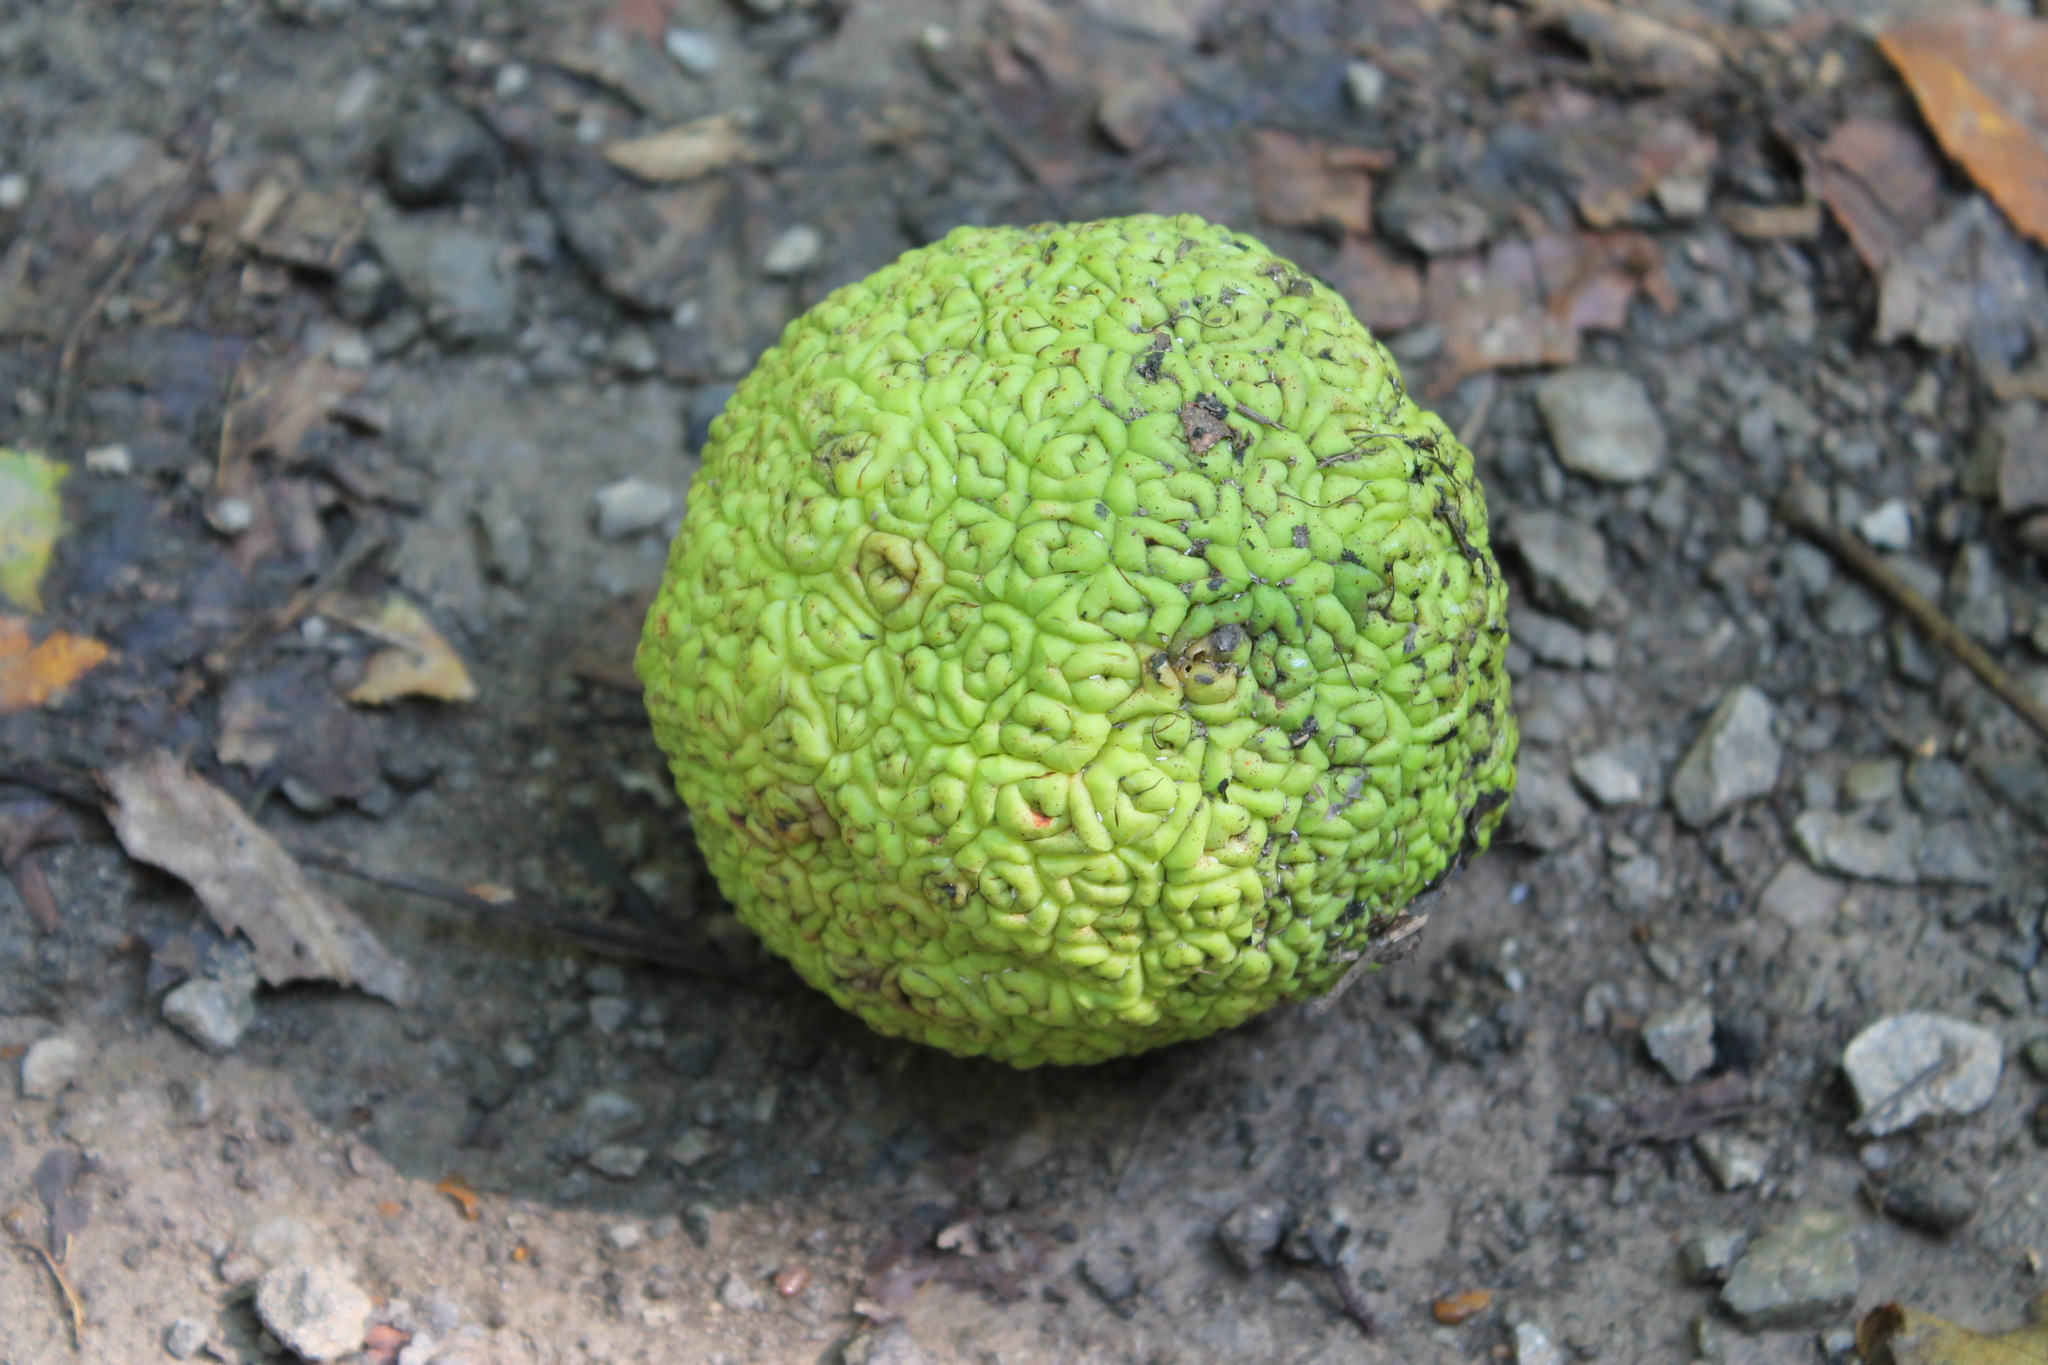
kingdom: Plantae
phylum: Tracheophyta
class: Magnoliopsida
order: Rosales
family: Moraceae
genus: Maclura
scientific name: Maclura pomifera
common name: Osage-orange
